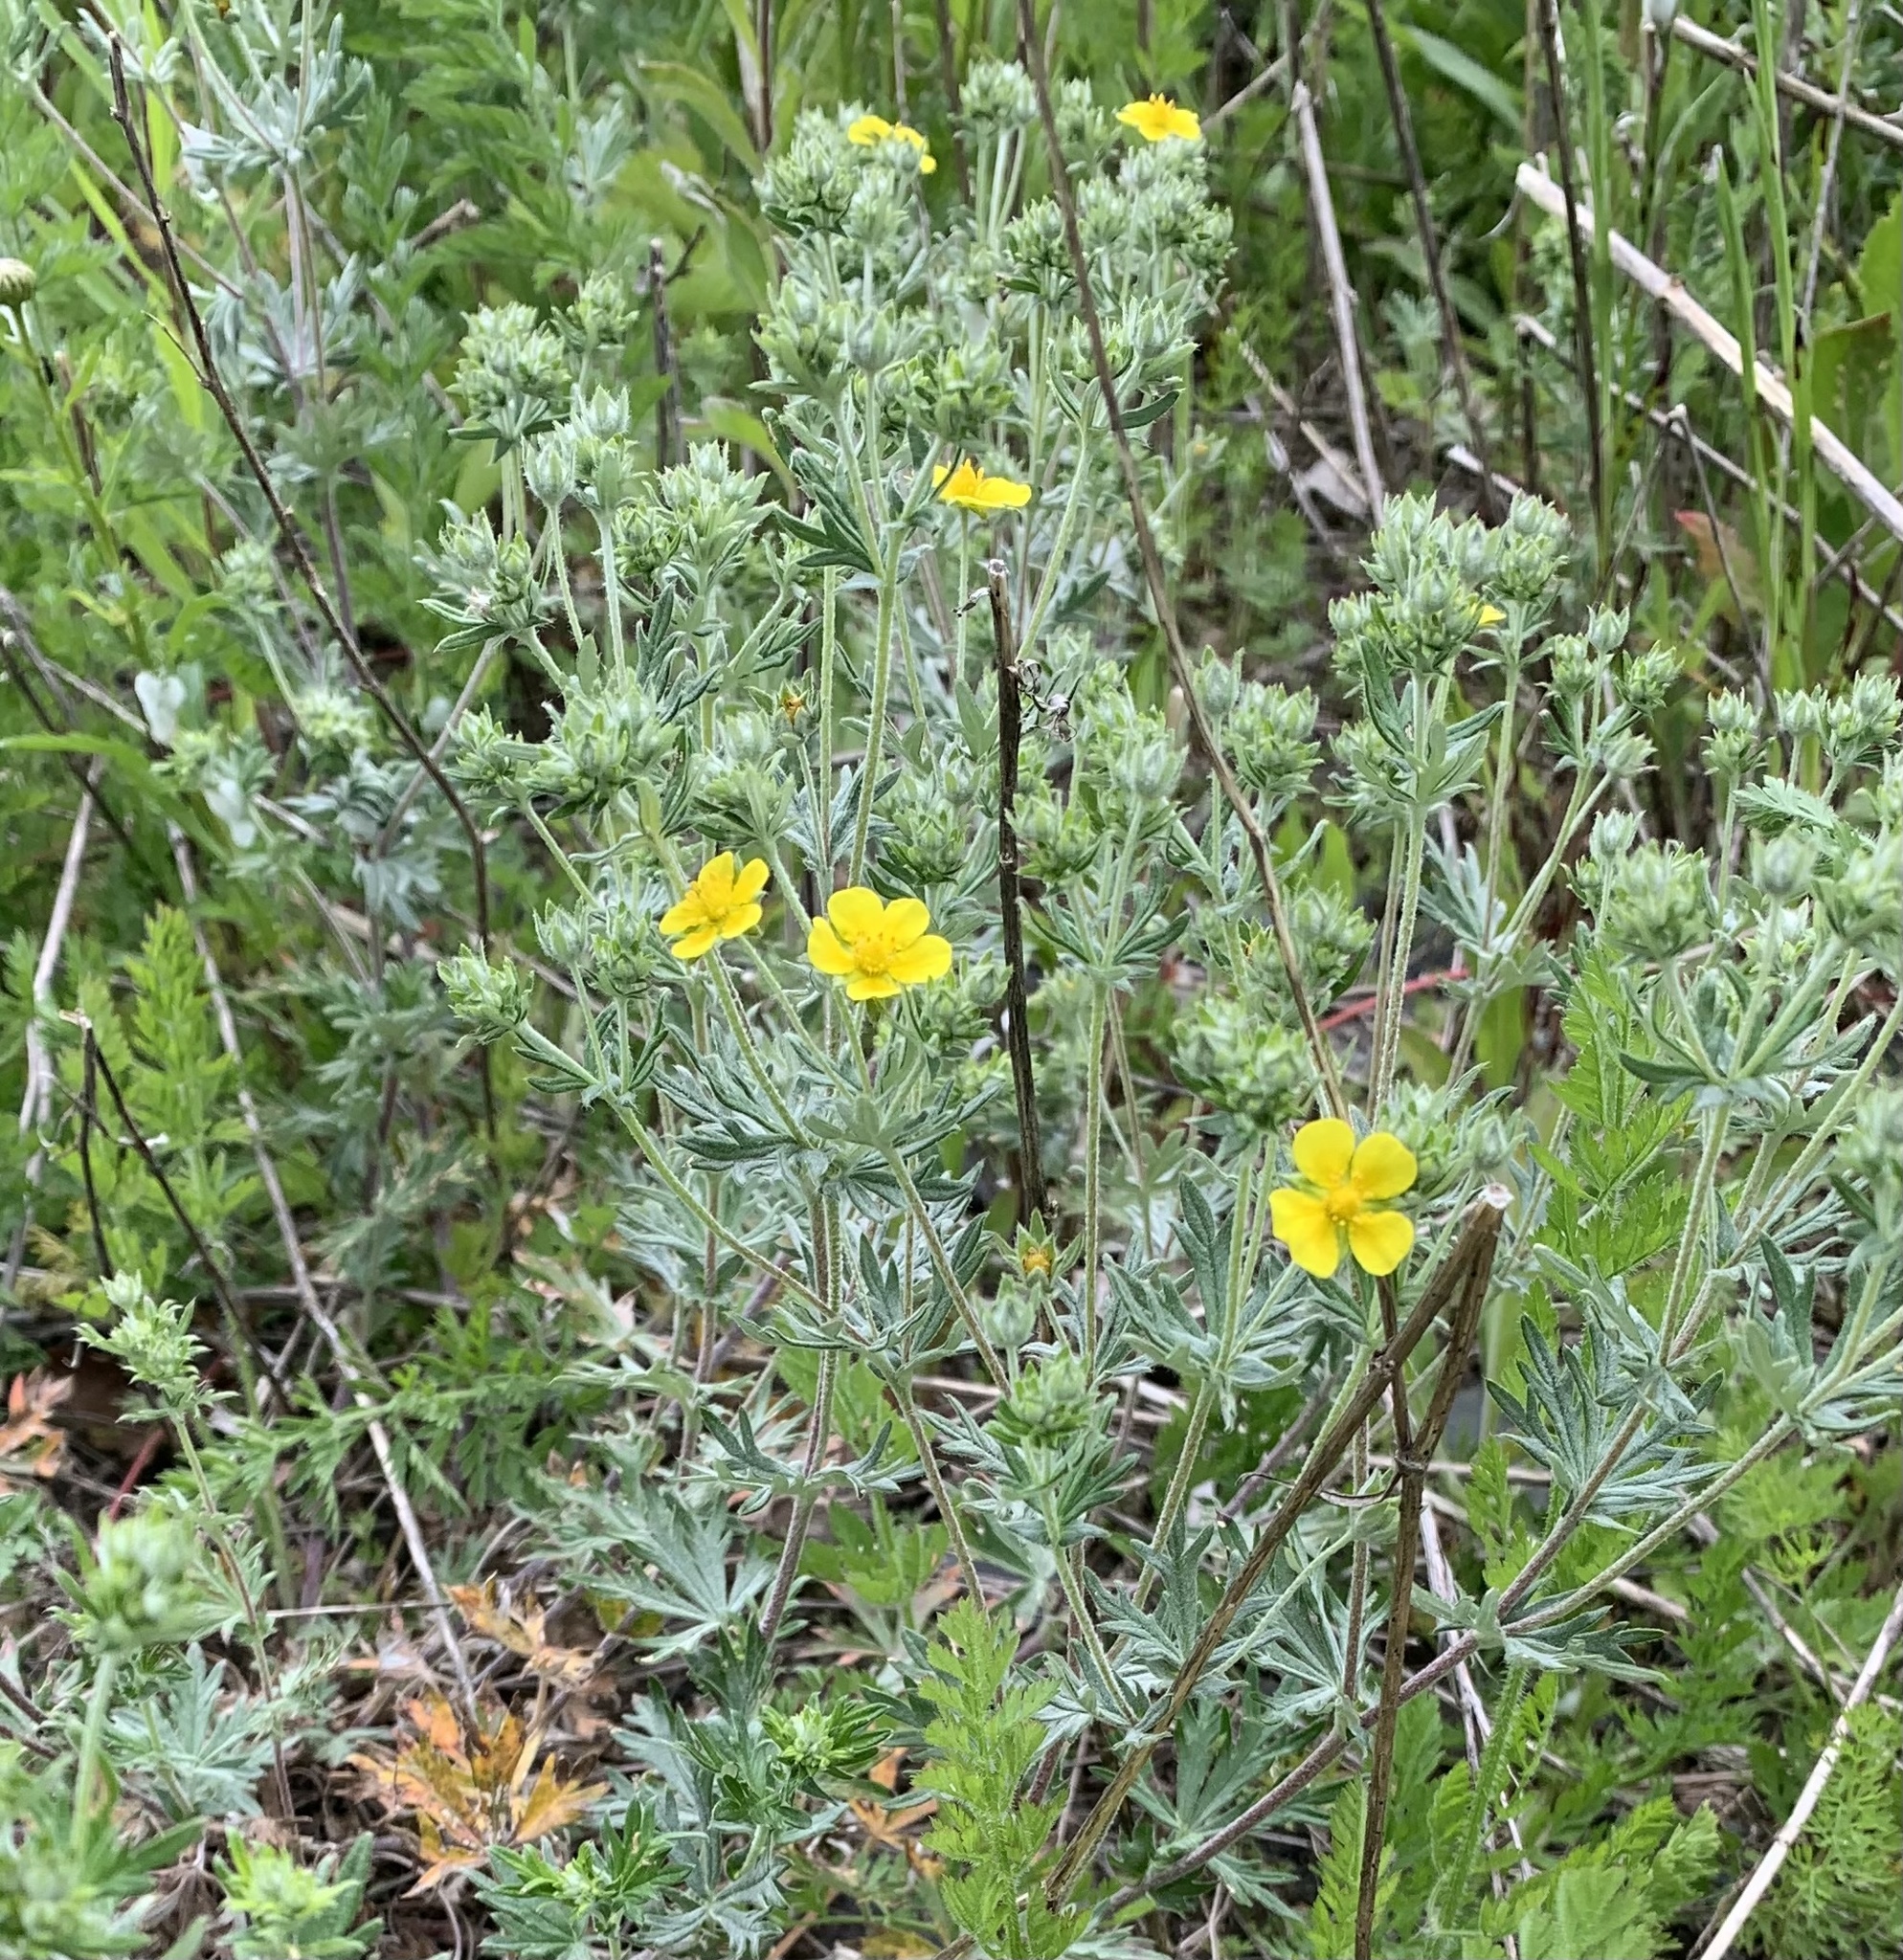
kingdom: Plantae
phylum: Tracheophyta
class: Magnoliopsida
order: Rosales
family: Rosaceae
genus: Potentilla
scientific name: Potentilla argentea
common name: Hoary cinquefoil
